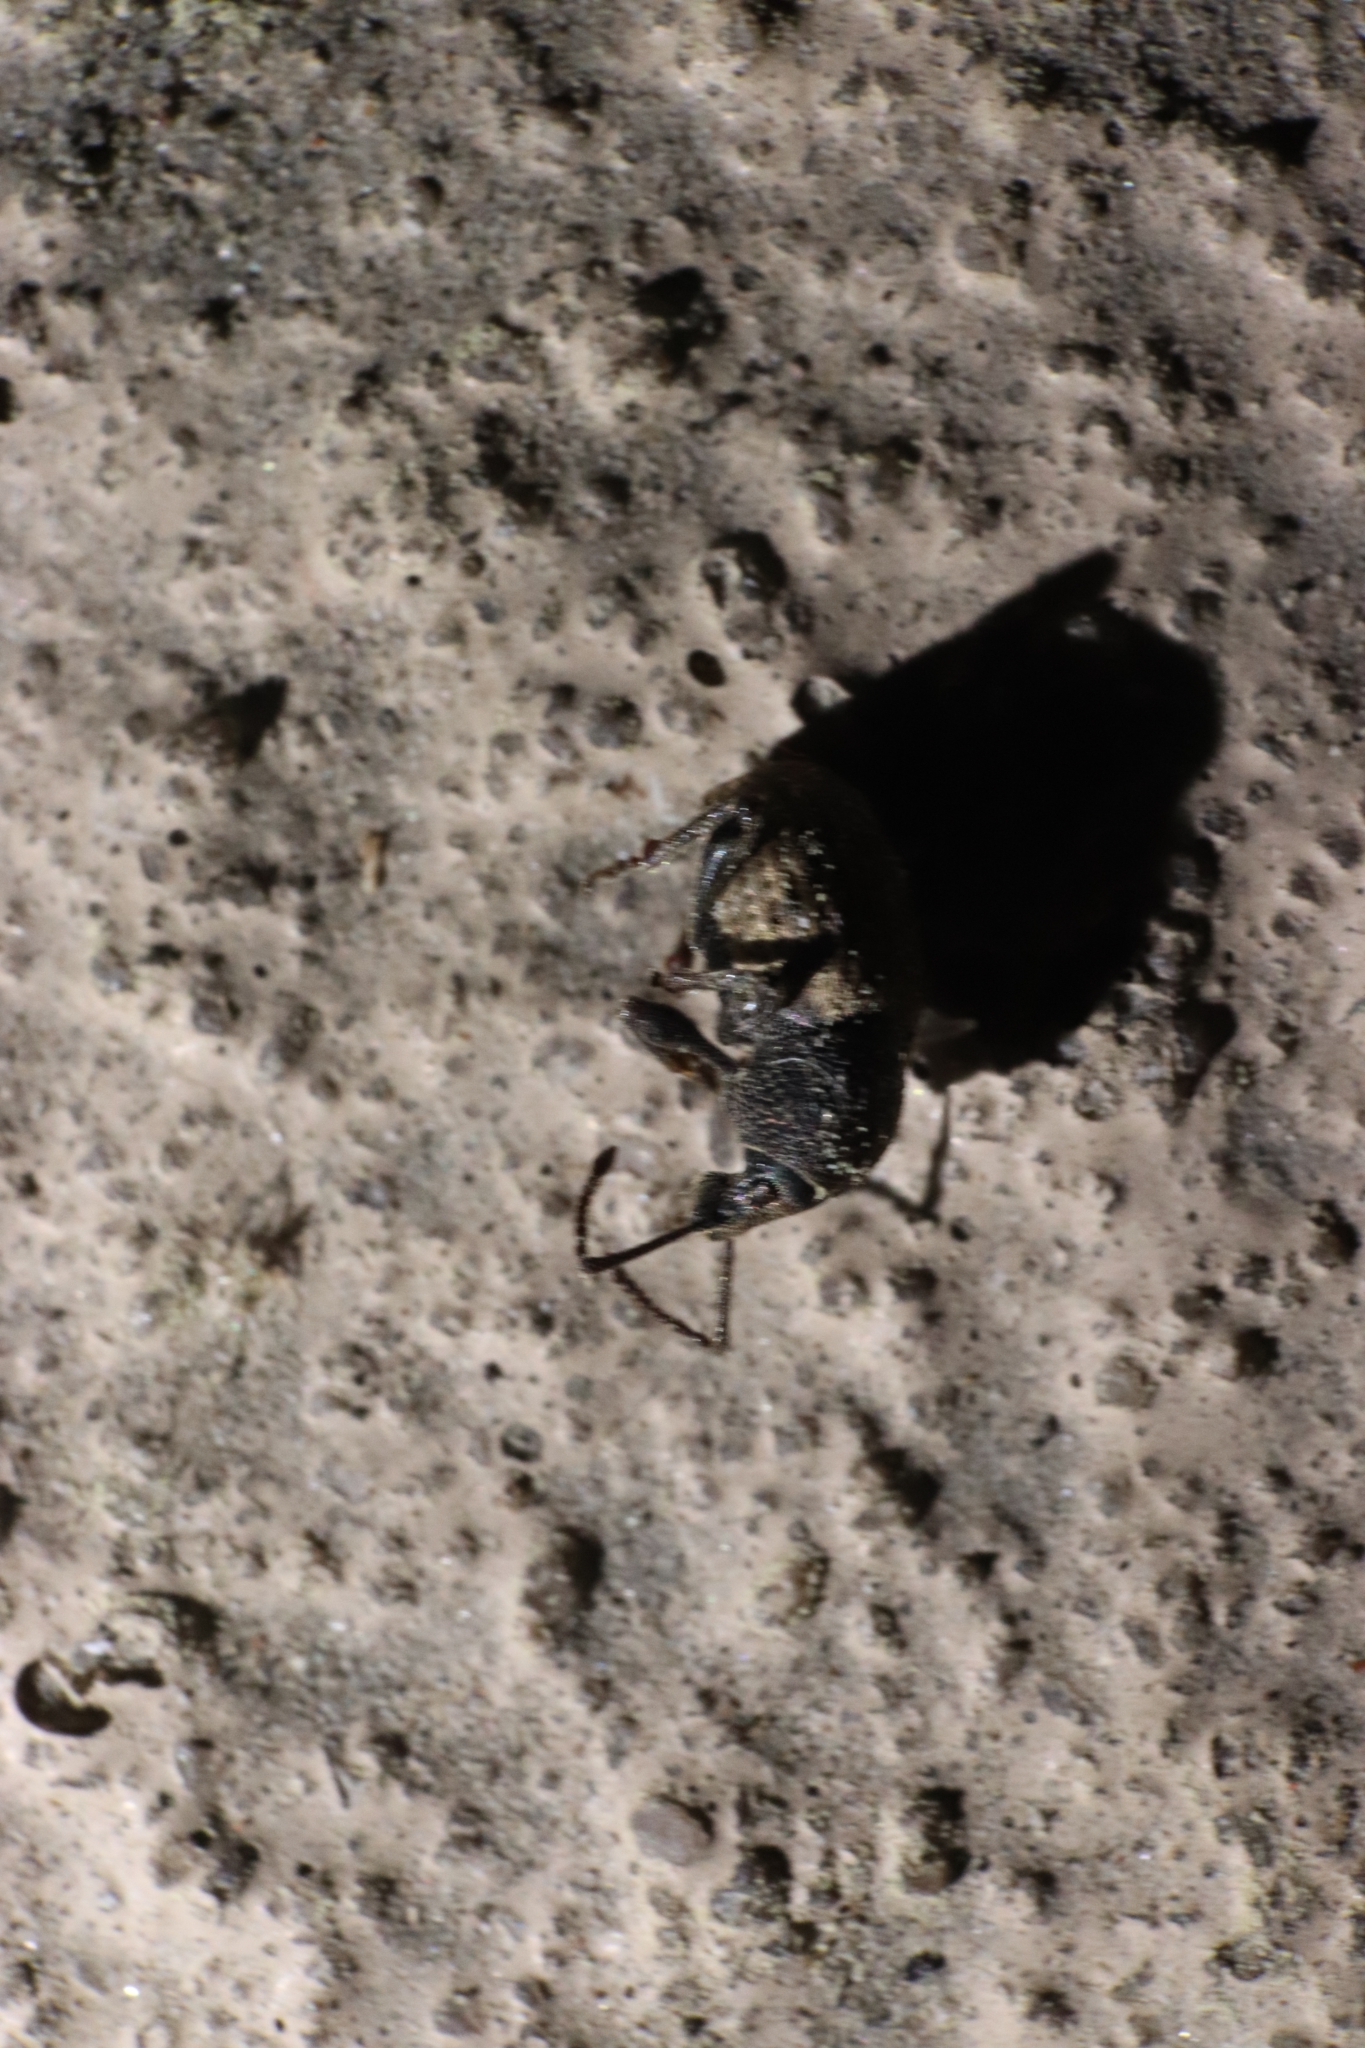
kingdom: Animalia
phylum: Arthropoda
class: Insecta
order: Coleoptera
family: Curculionidae
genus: Otiorhynchus
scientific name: Otiorhynchus raucus
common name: Weevil
